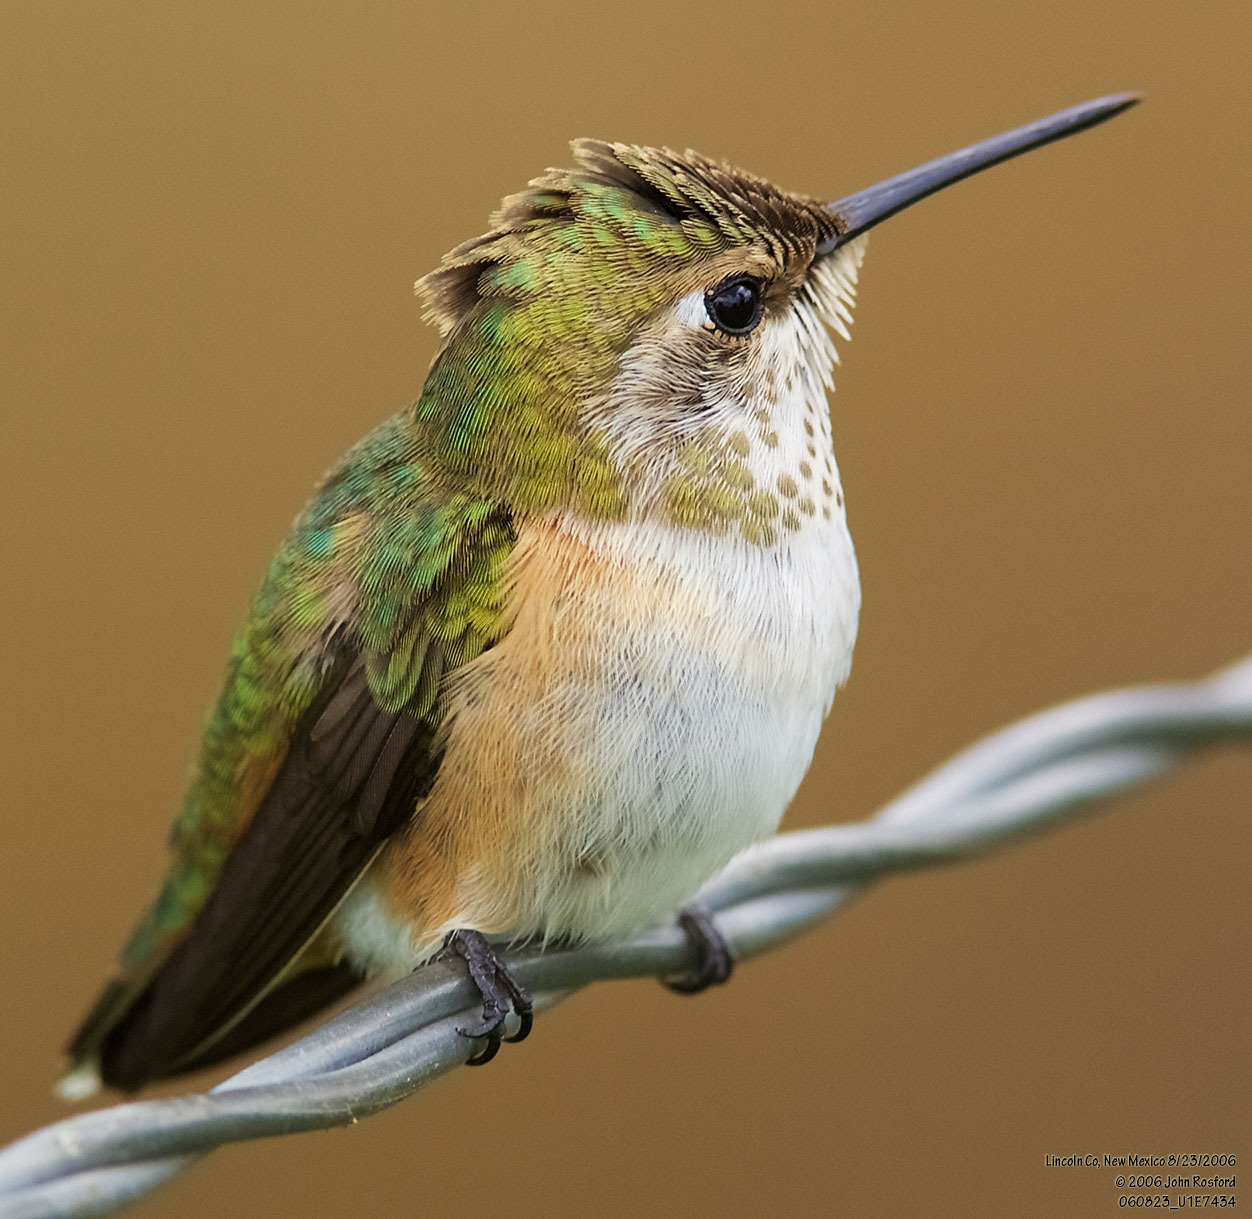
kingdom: Animalia
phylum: Chordata
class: Aves
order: Apodiformes
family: Trochilidae
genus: Selasphorus
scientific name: Selasphorus rufus
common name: Rufous hummingbird
